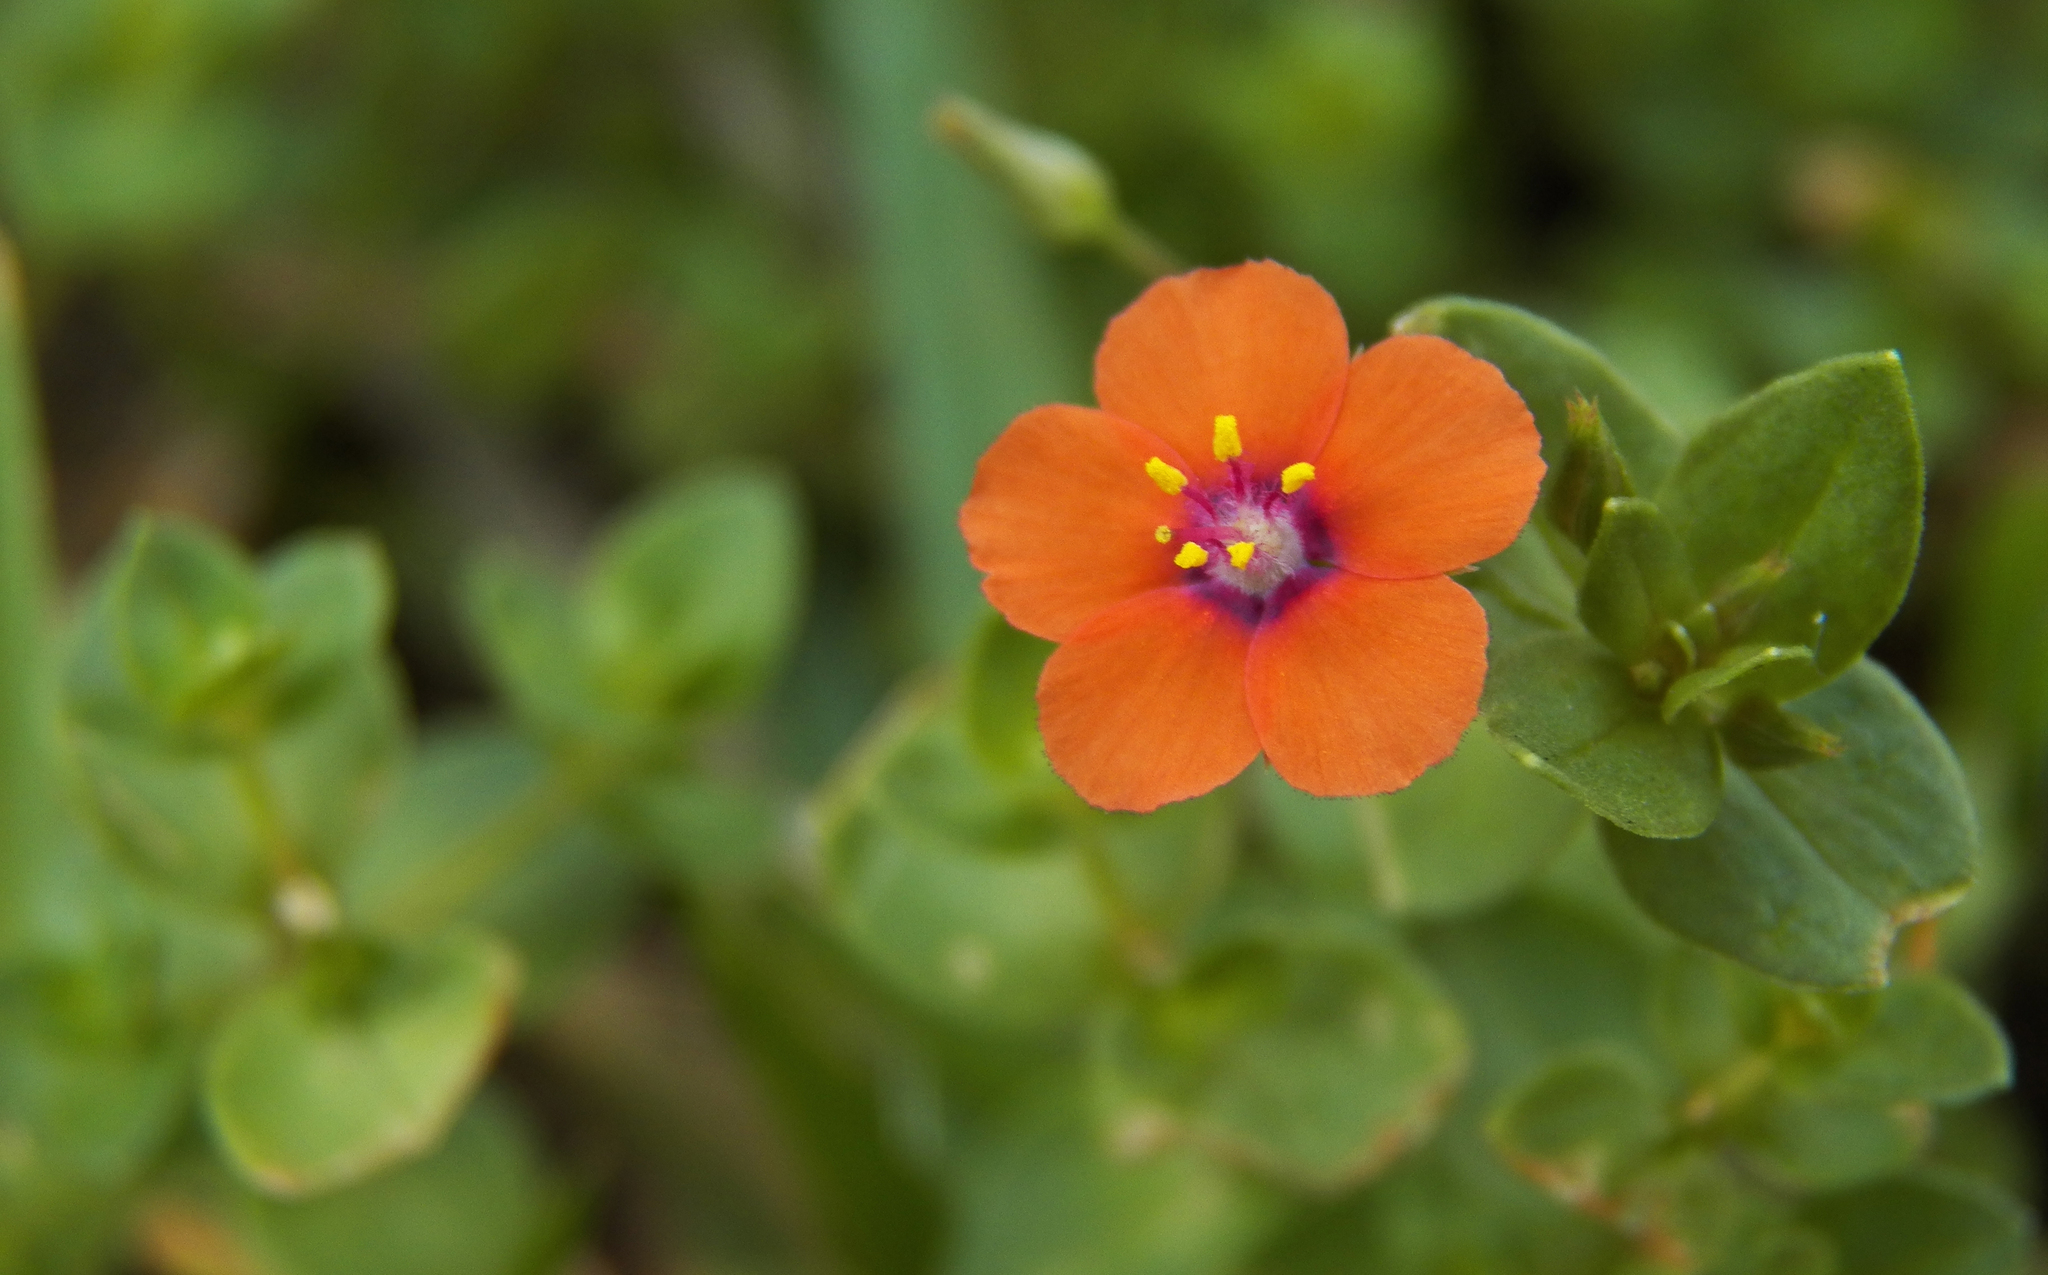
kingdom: Plantae
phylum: Tracheophyta
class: Magnoliopsida
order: Ericales
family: Primulaceae
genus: Lysimachia
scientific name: Lysimachia arvensis
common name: Scarlet pimpernel
